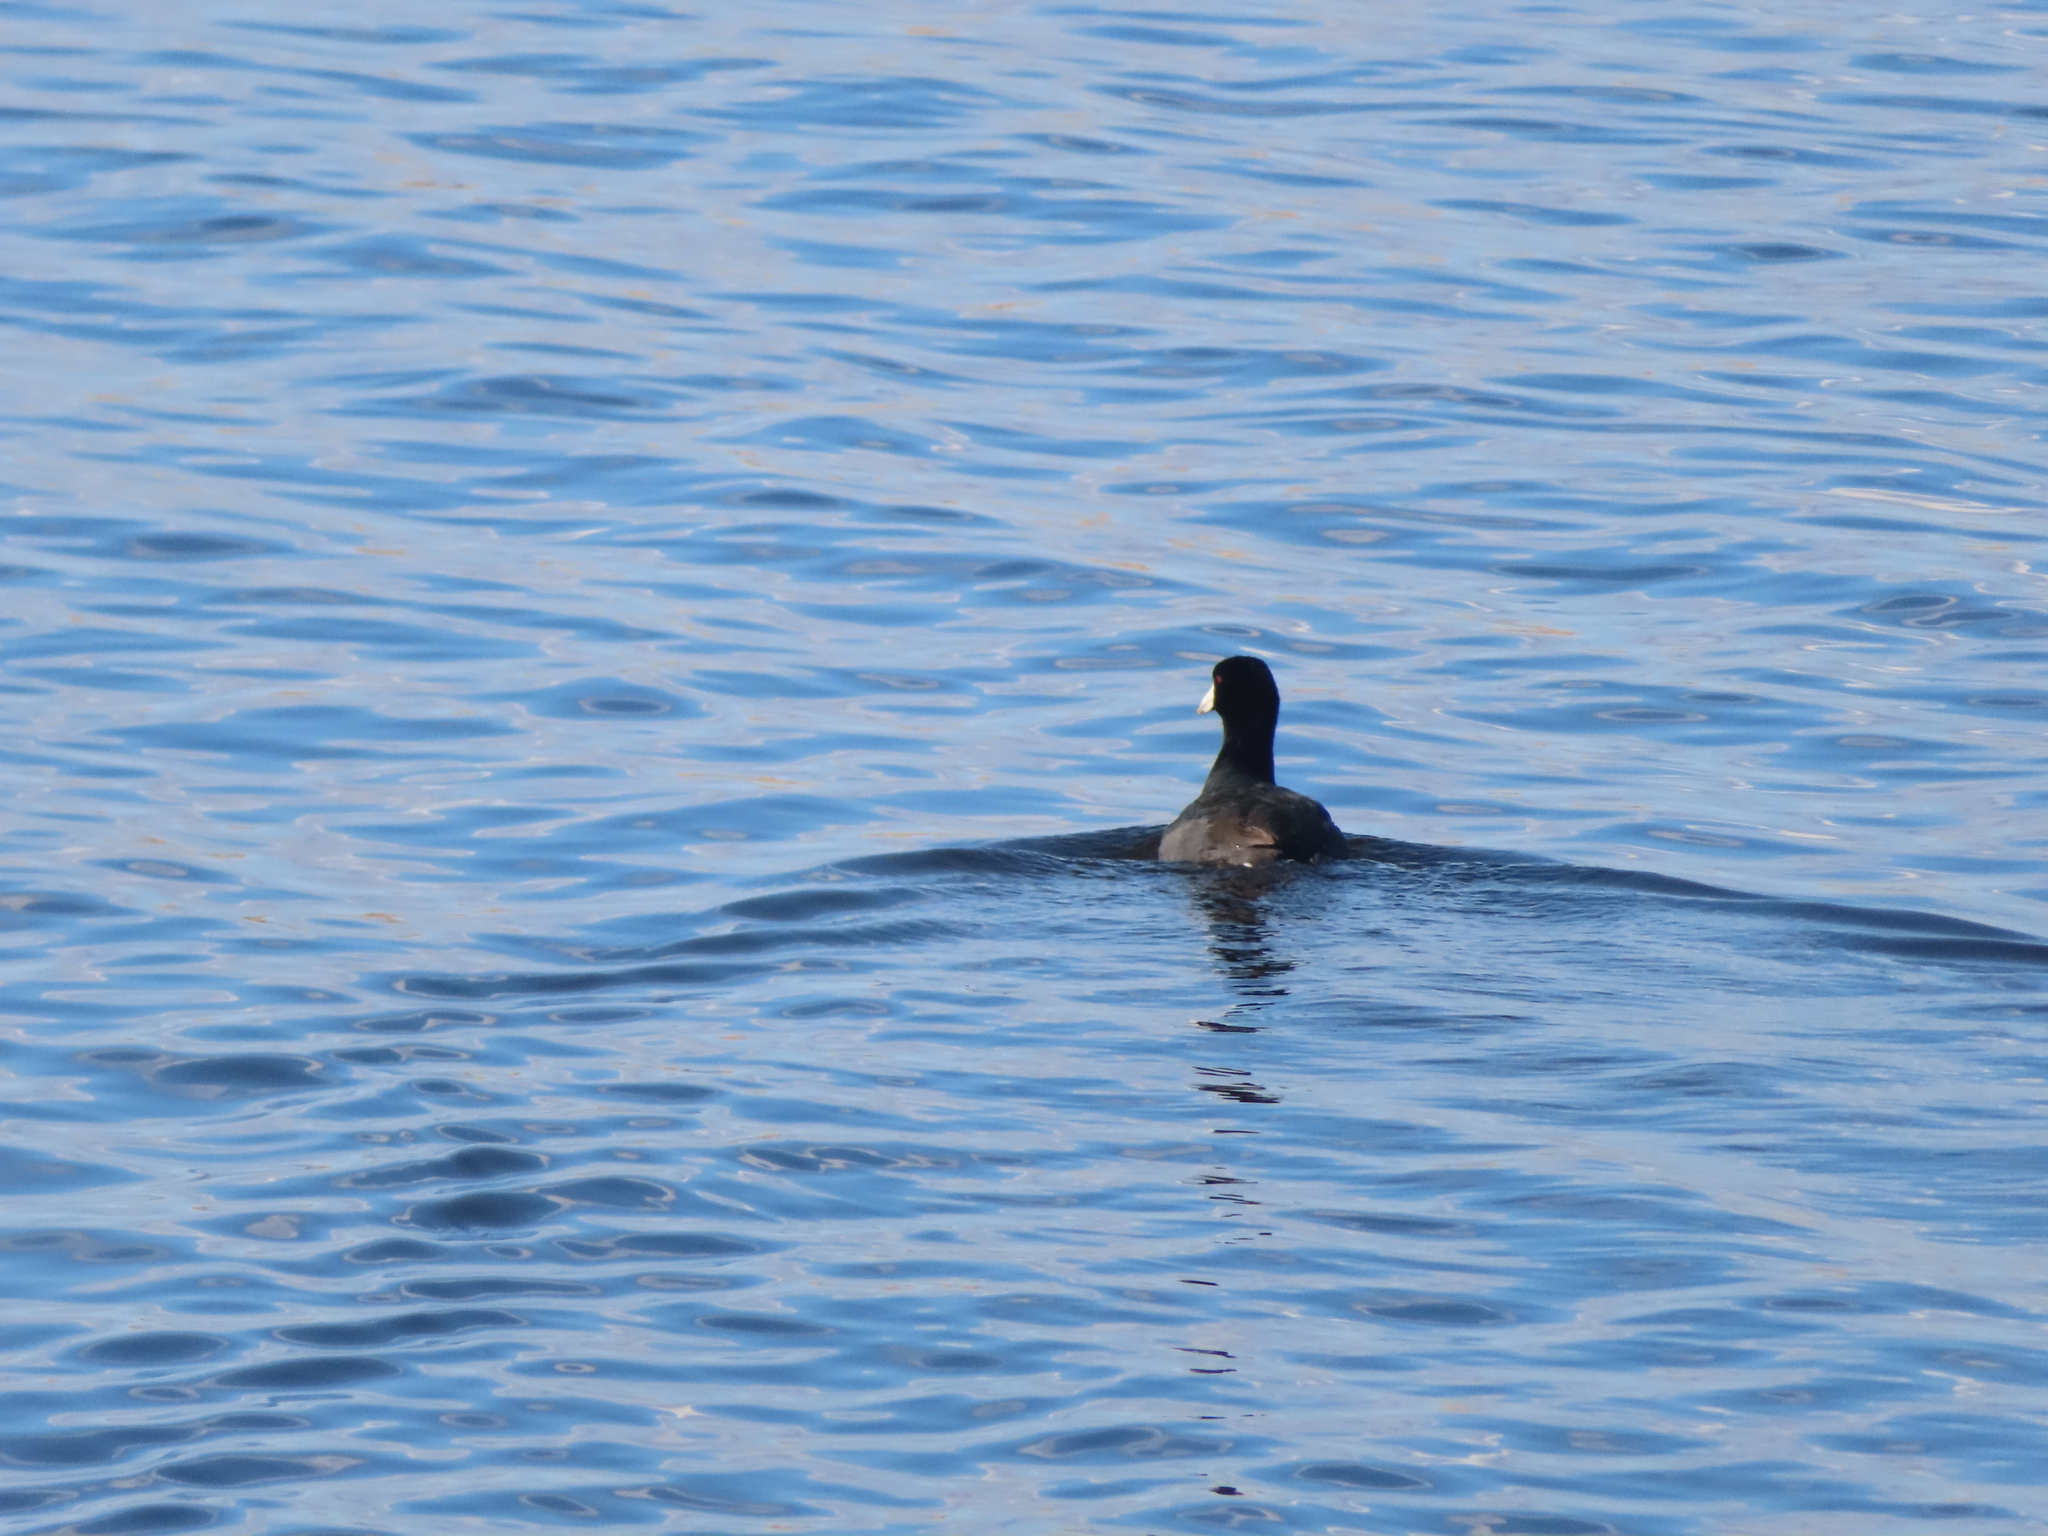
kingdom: Animalia
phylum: Chordata
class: Aves
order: Gruiformes
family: Rallidae
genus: Fulica
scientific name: Fulica americana
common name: American coot
